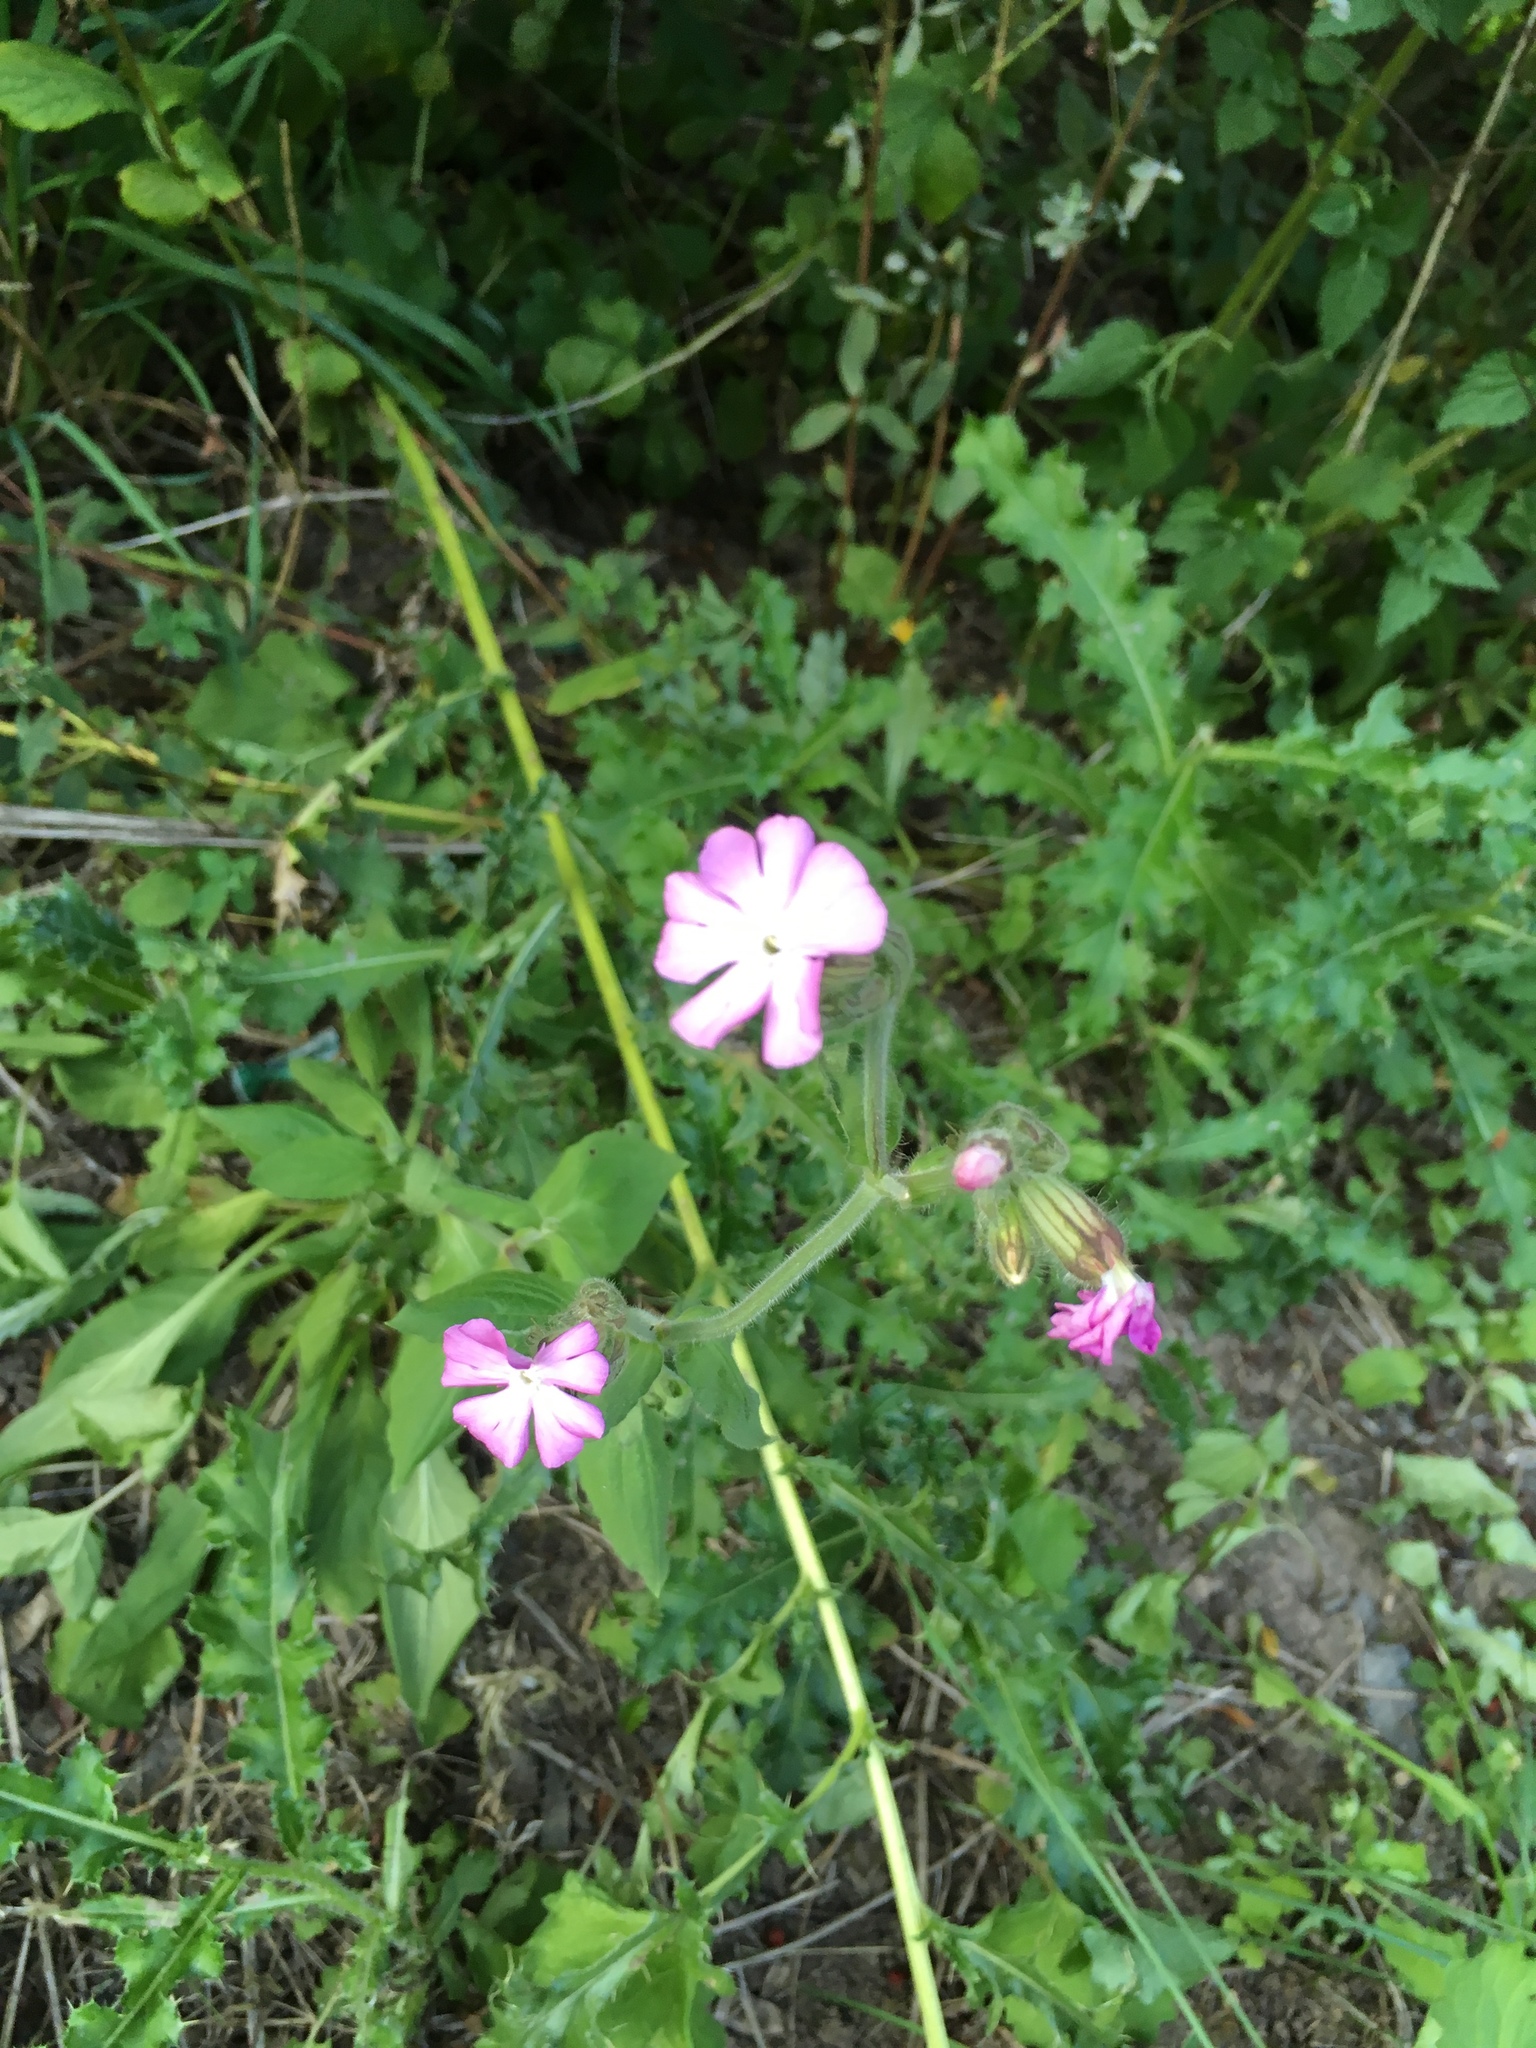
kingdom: Plantae
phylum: Tracheophyta
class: Magnoliopsida
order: Caryophyllales
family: Caryophyllaceae
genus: Silene
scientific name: Silene dioica
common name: Red campion
